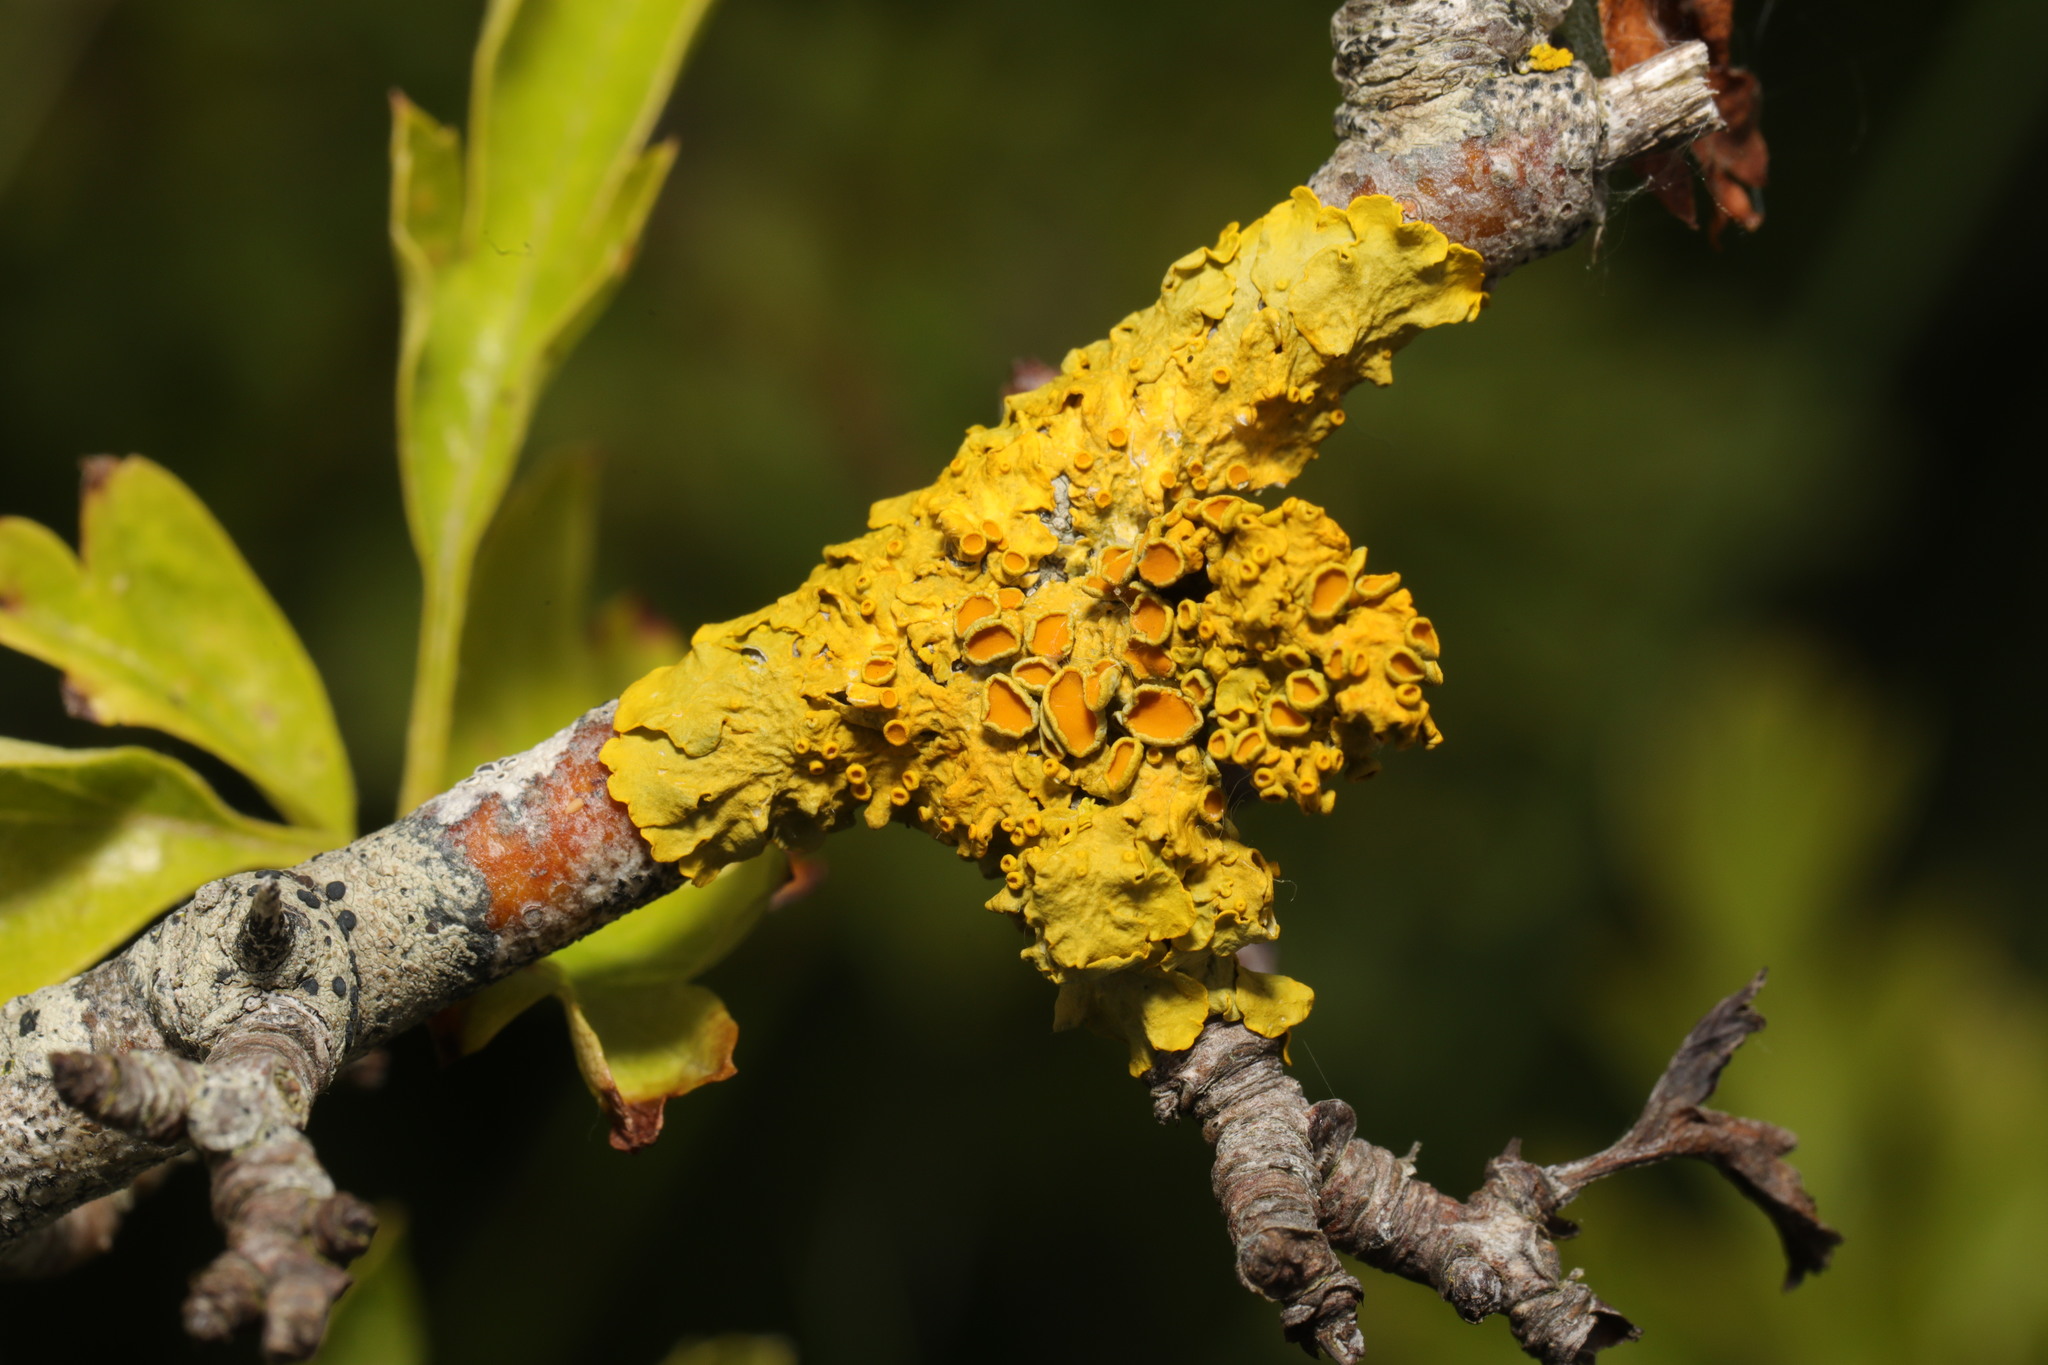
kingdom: Fungi
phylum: Ascomycota
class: Lecanoromycetes
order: Teloschistales
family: Teloschistaceae
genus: Xanthoria
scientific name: Xanthoria parietina
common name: Common orange lichen
